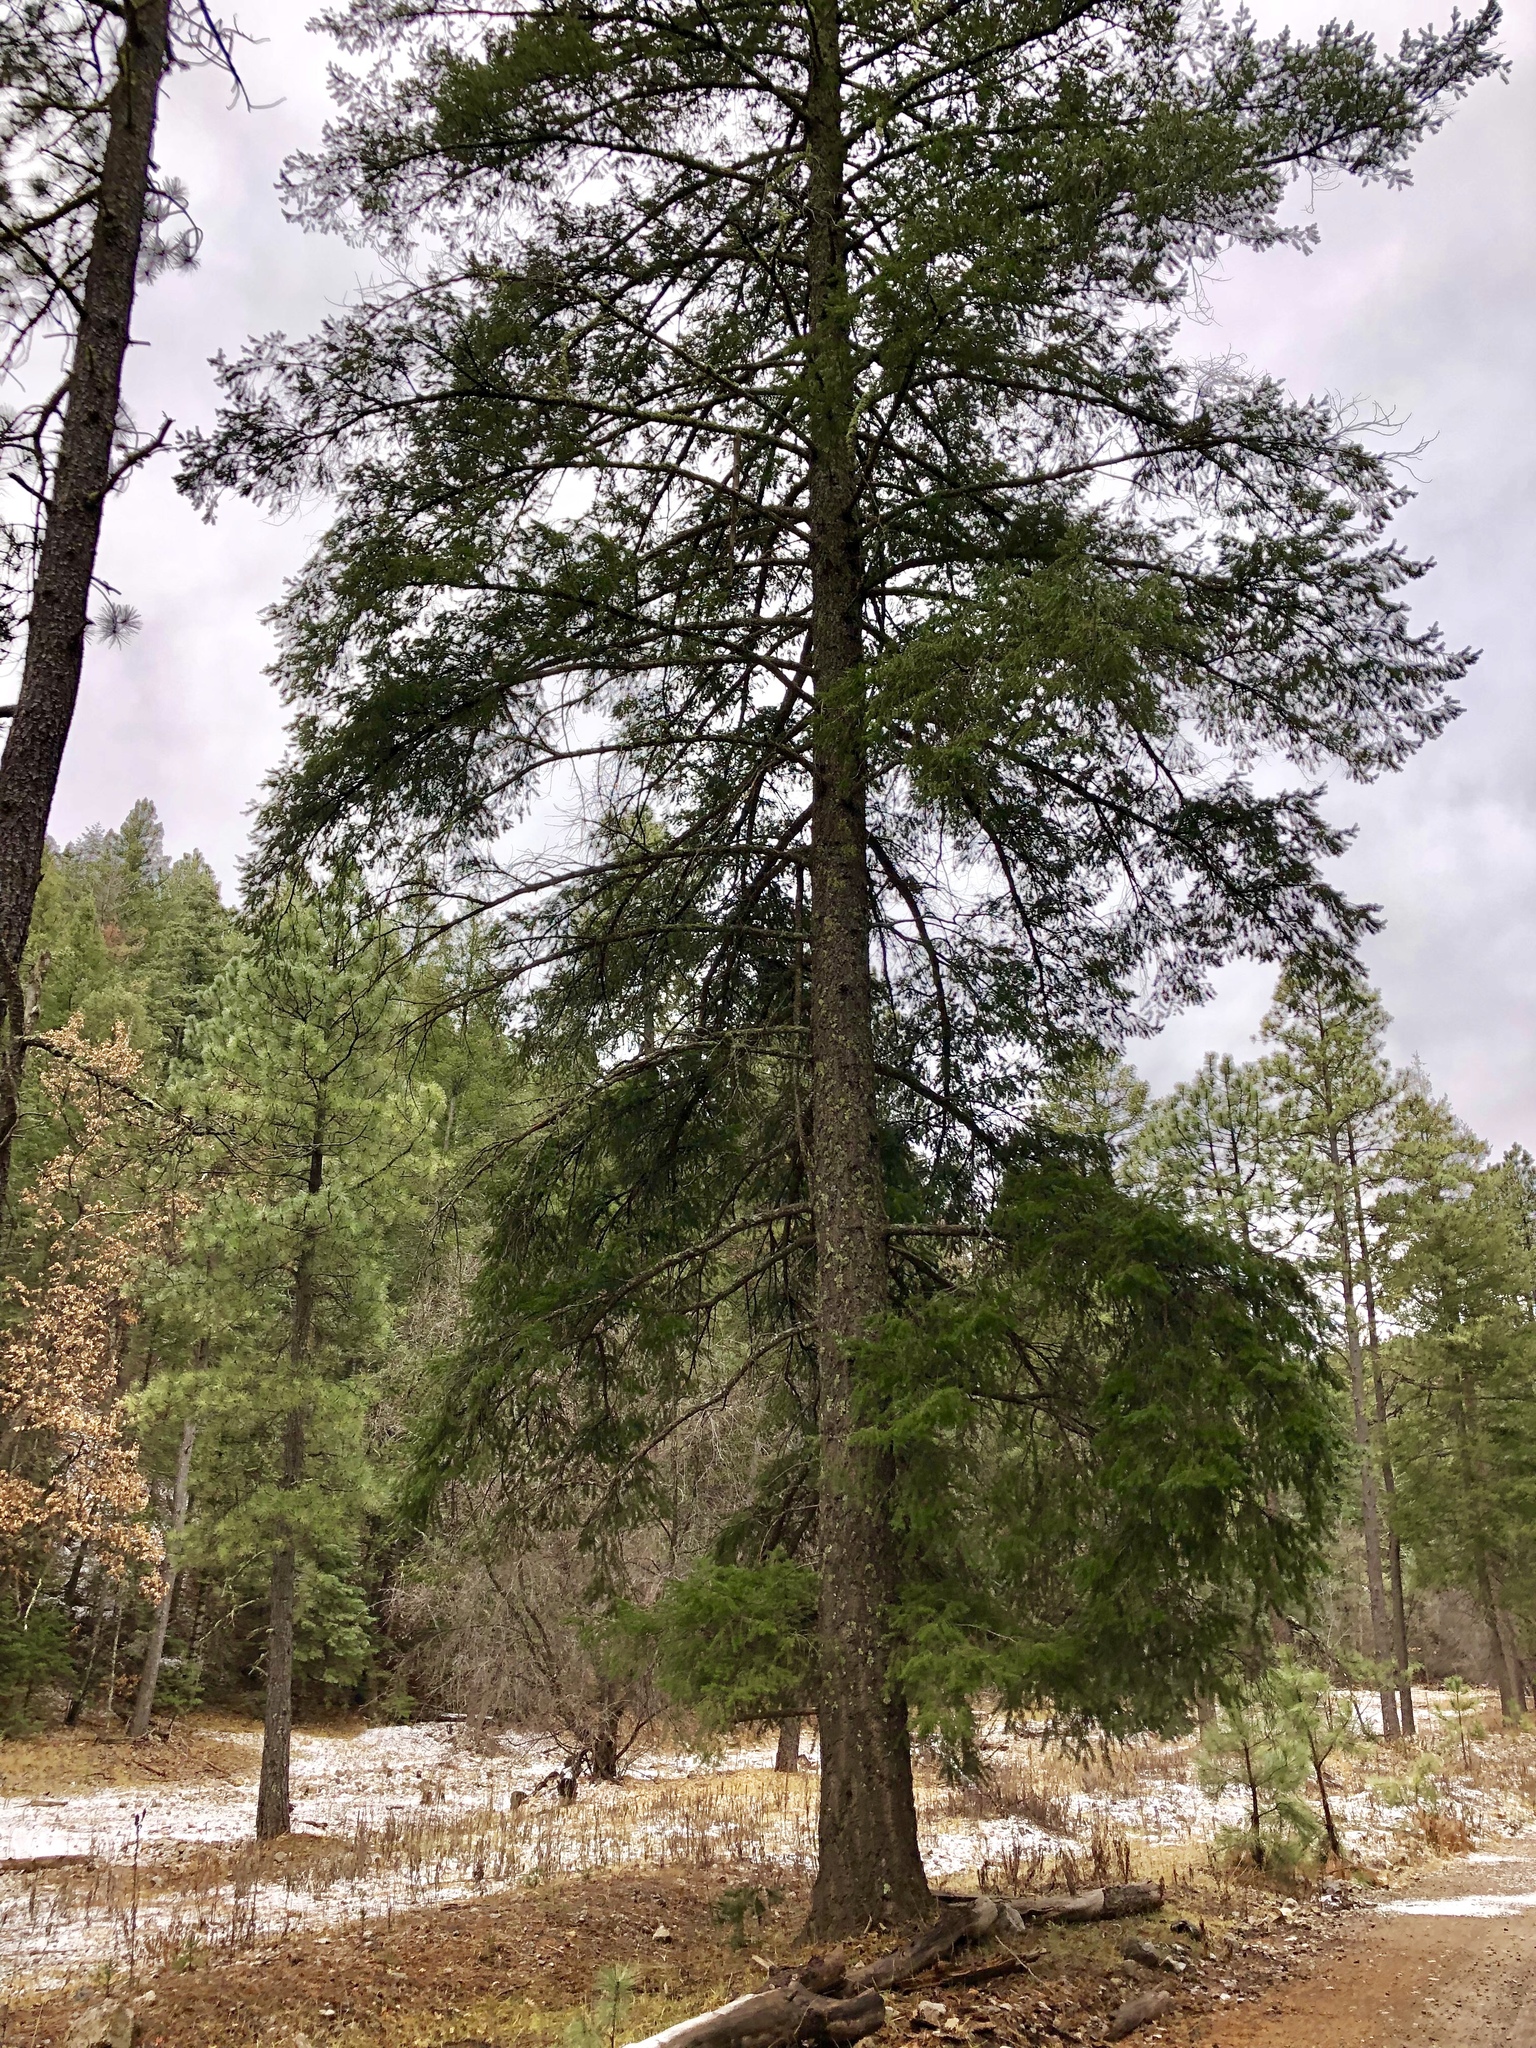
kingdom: Plantae
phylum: Tracheophyta
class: Pinopsida
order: Pinales
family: Pinaceae
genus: Pseudotsuga
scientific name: Pseudotsuga menziesii
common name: Douglas fir
